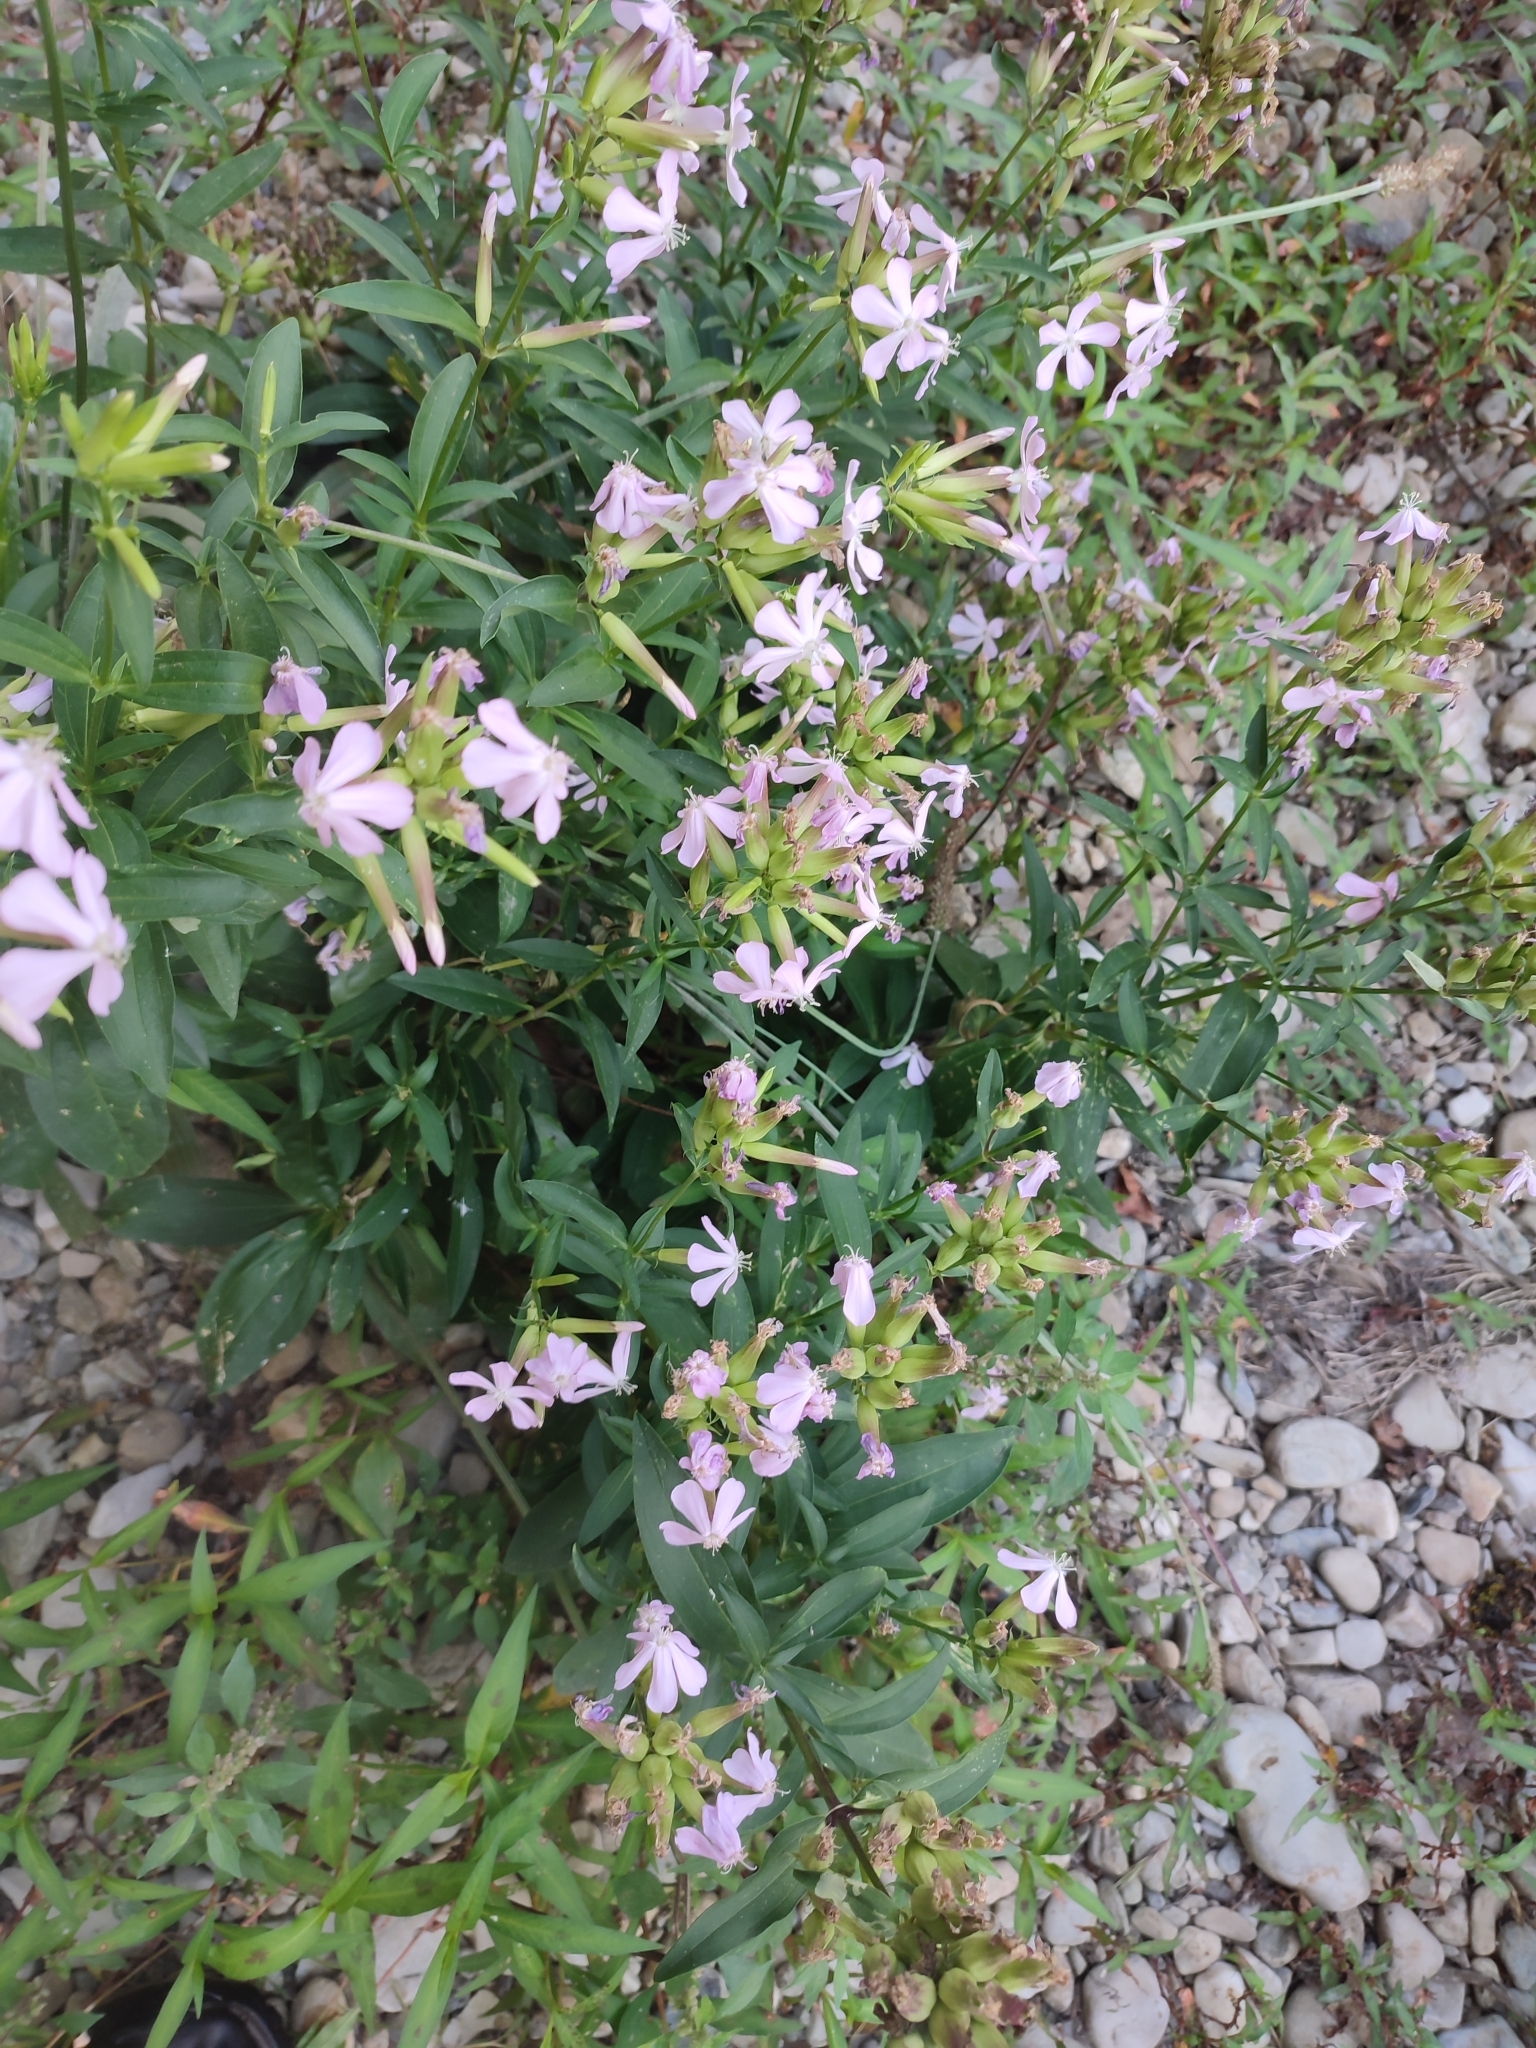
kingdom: Plantae
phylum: Tracheophyta
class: Magnoliopsida
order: Caryophyllales
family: Caryophyllaceae
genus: Saponaria
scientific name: Saponaria officinalis
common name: Soapwort
